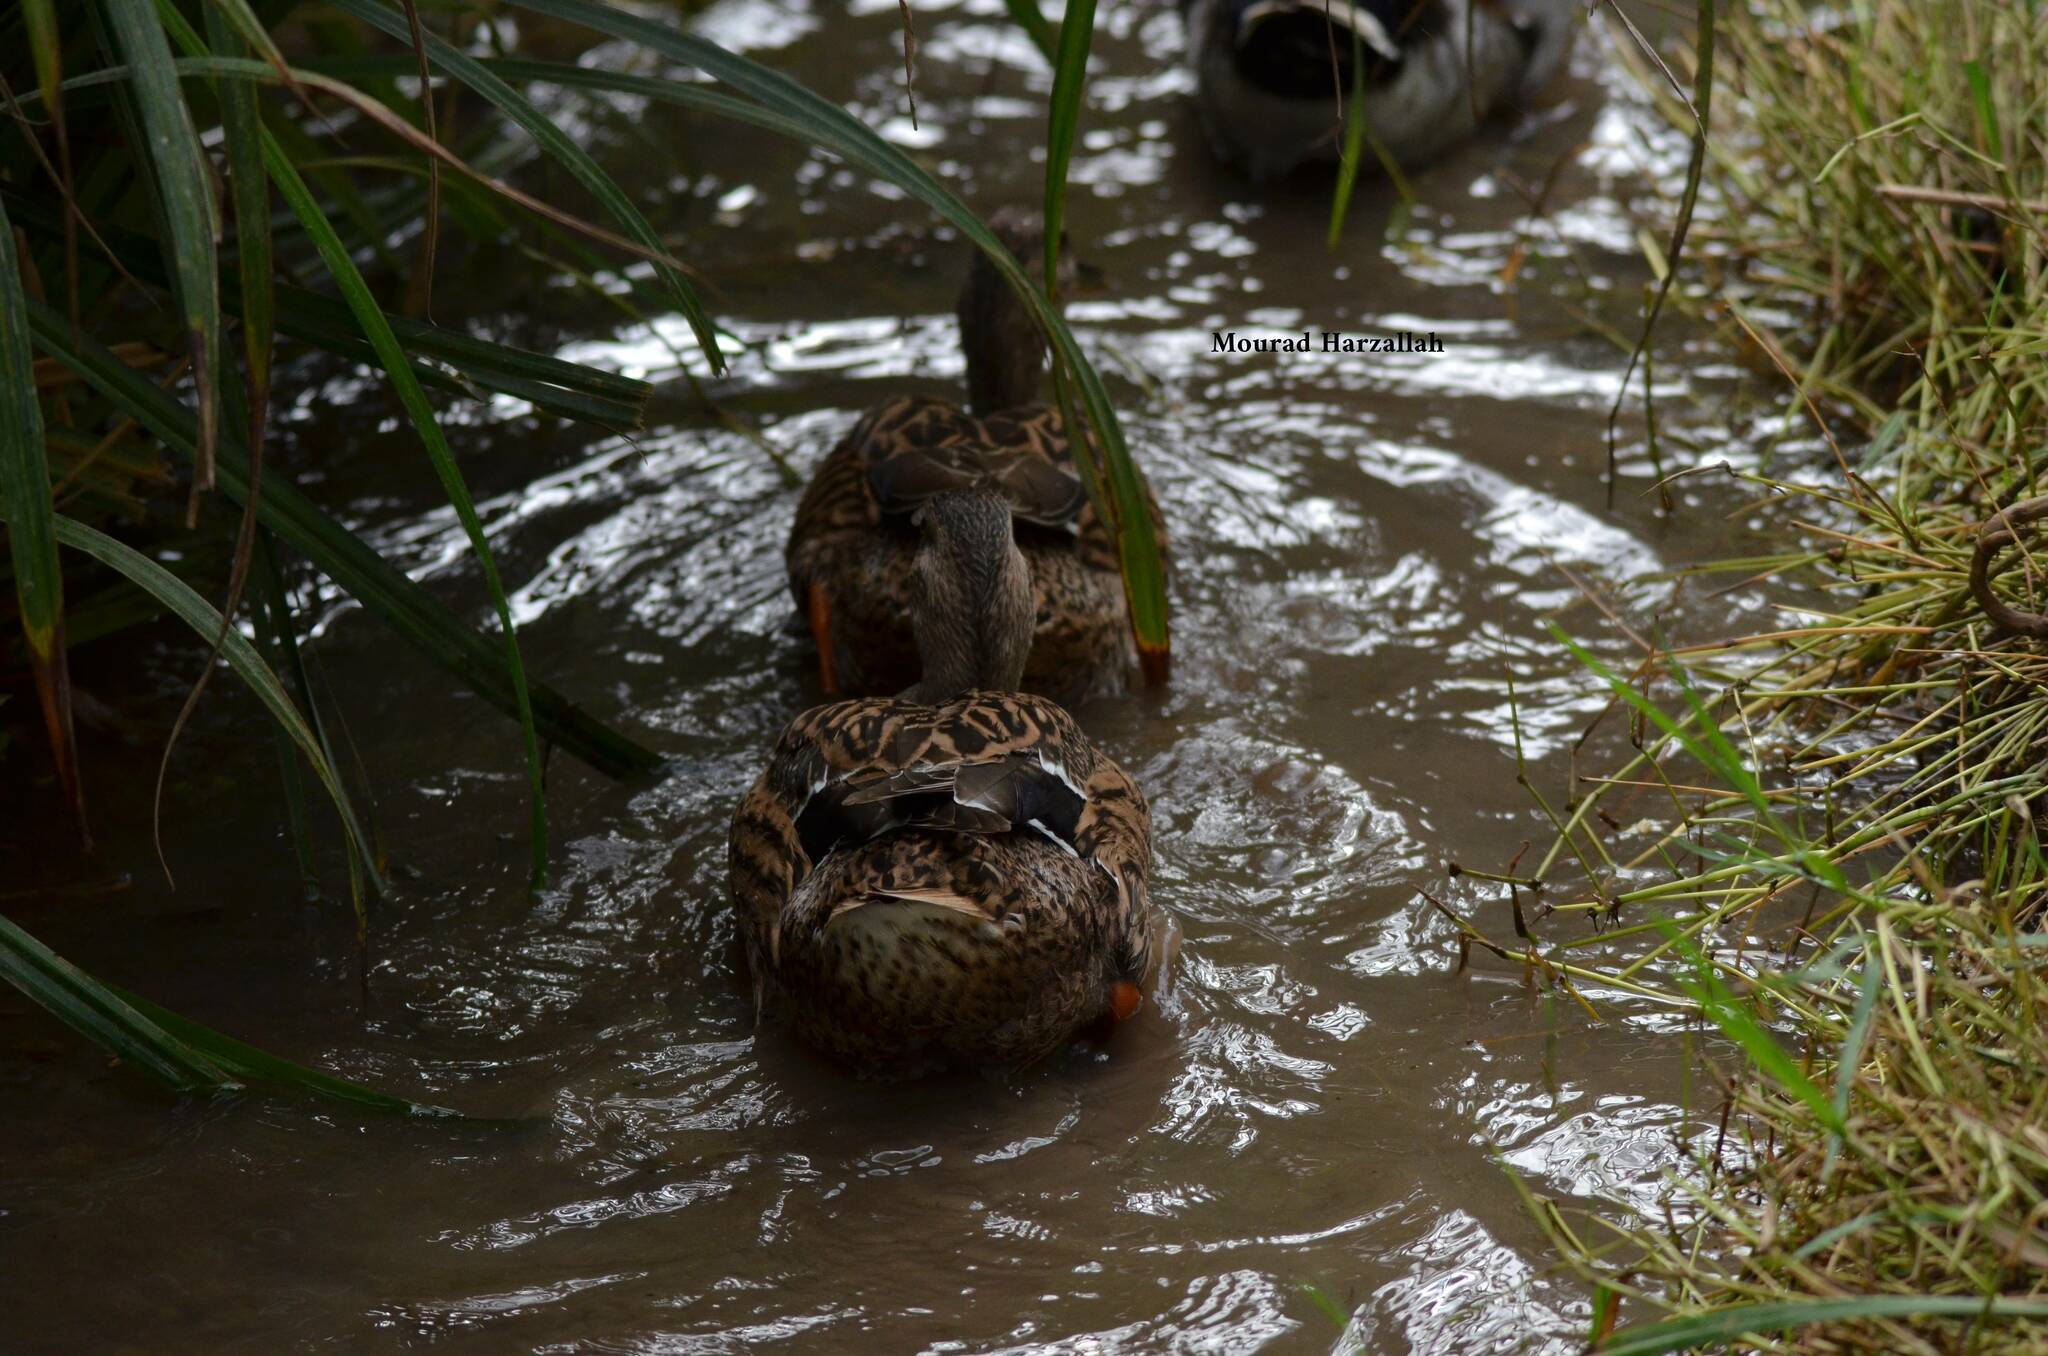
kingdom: Animalia
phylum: Chordata
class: Aves
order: Anseriformes
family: Anatidae
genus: Anas
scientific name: Anas platyrhynchos
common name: Mallard
